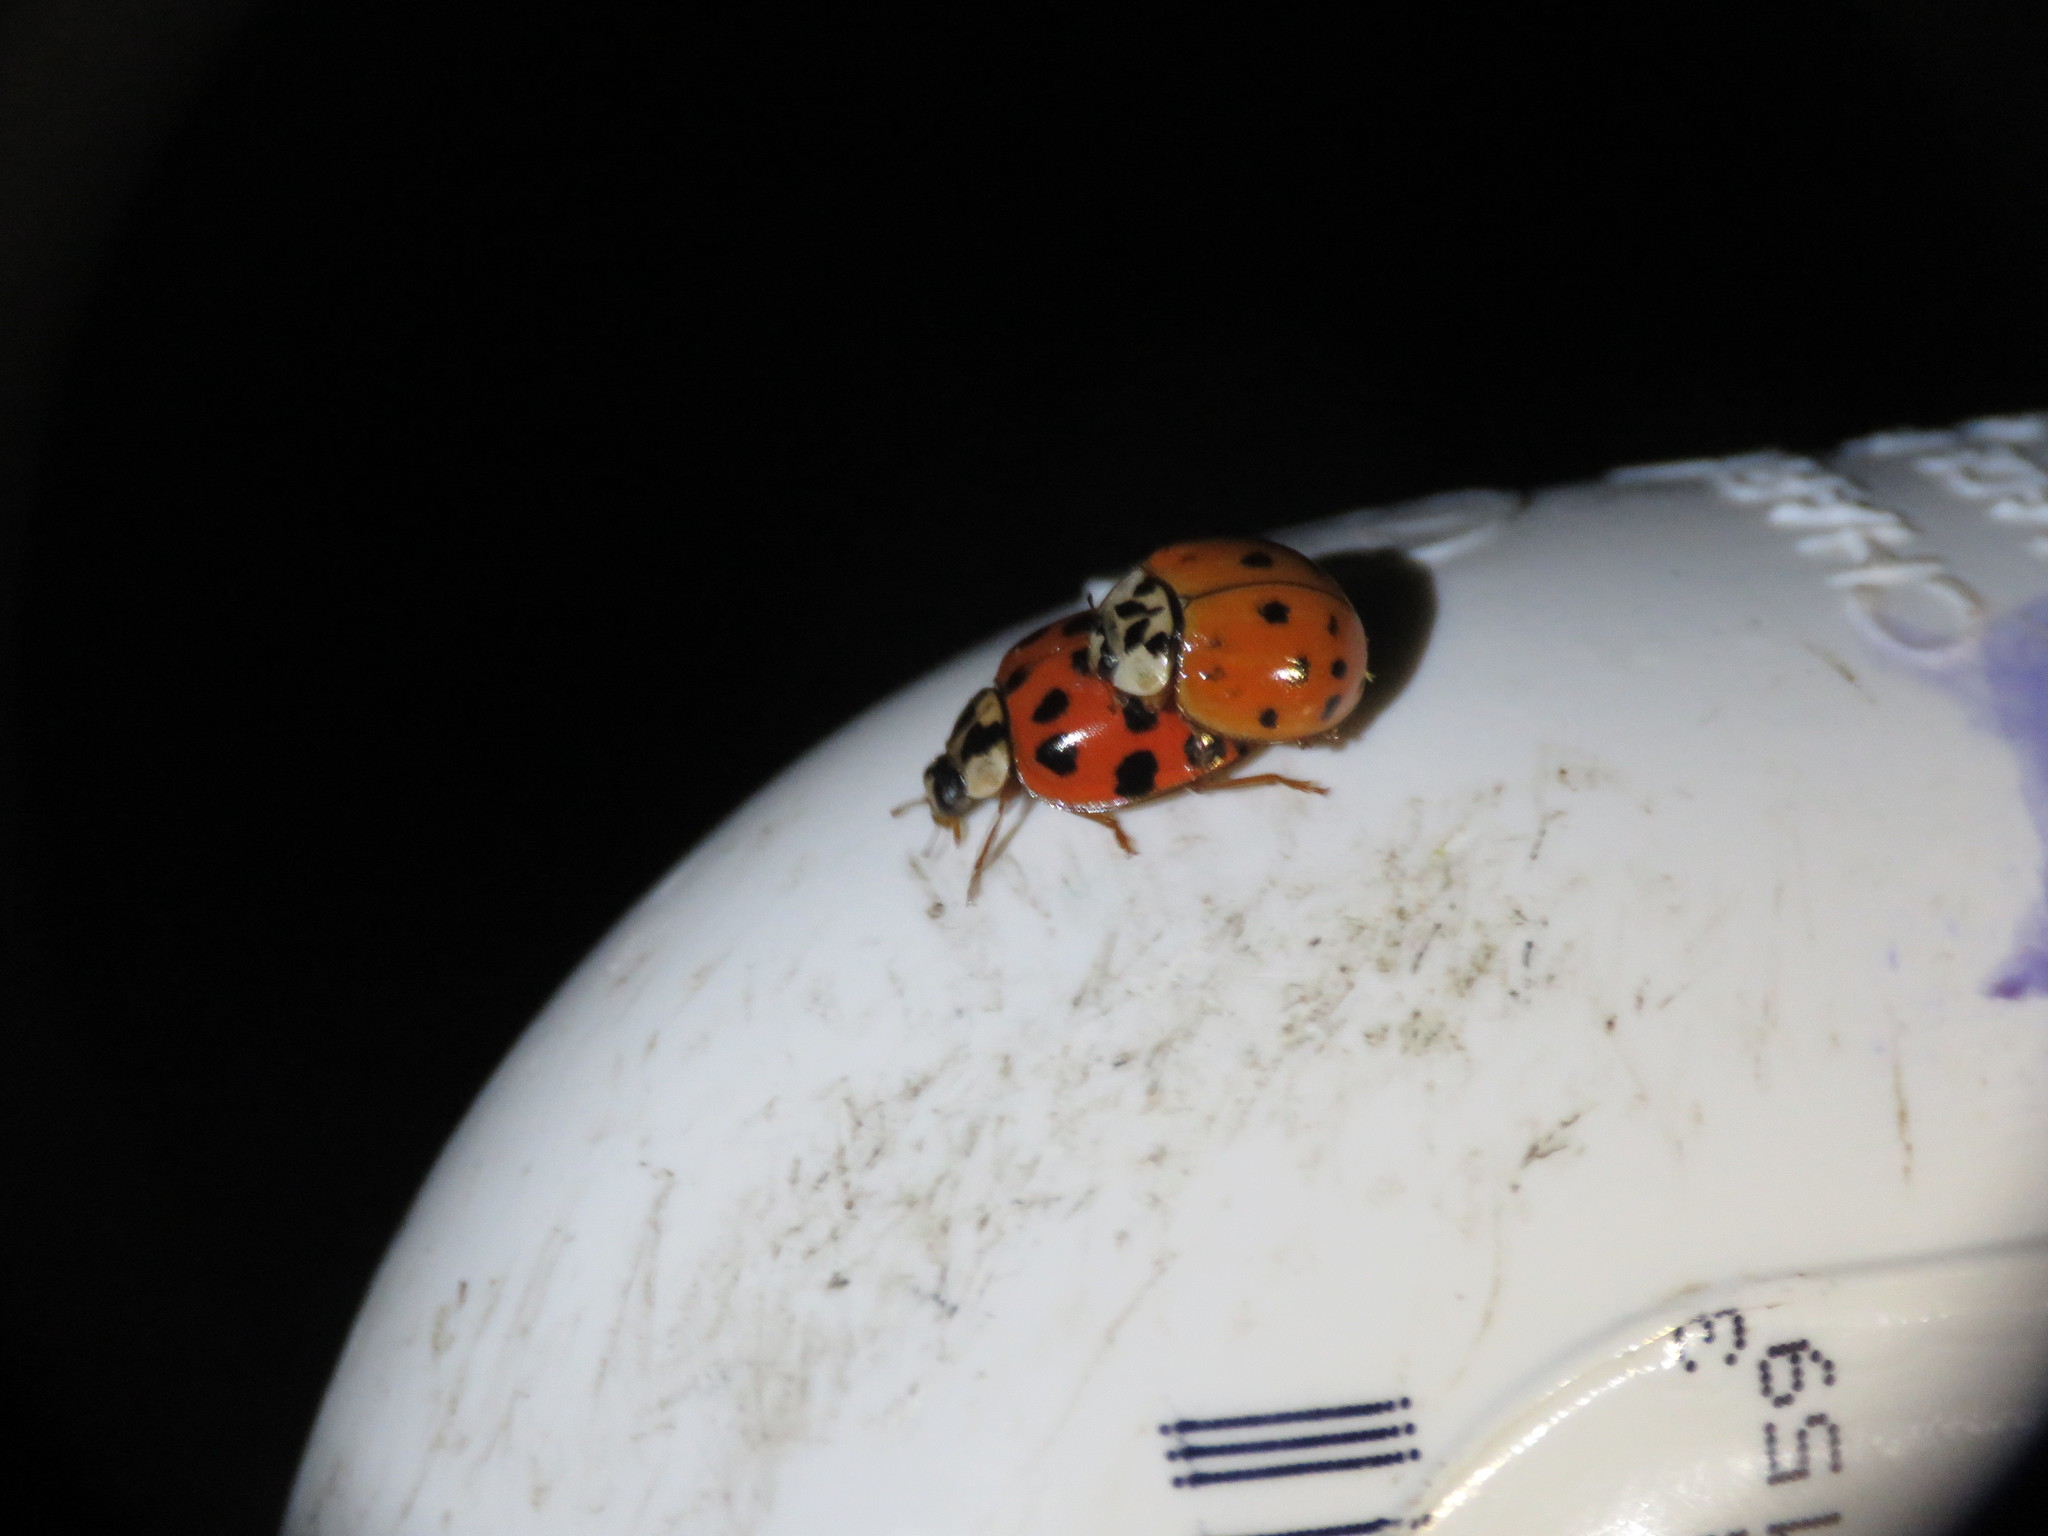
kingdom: Fungi
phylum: Ascomycota
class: Laboulbeniomycetes
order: Laboulbeniales
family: Laboulbeniaceae
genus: Hesperomyces
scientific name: Hesperomyces harmoniae
